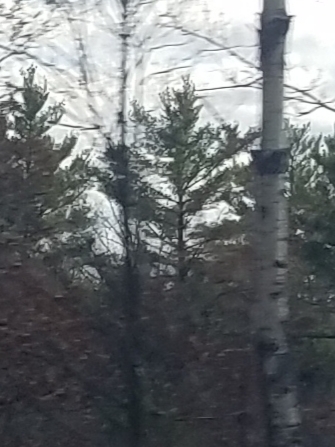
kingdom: Plantae
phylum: Tracheophyta
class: Pinopsida
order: Pinales
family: Pinaceae
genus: Pinus
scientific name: Pinus strobus
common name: Weymouth pine
